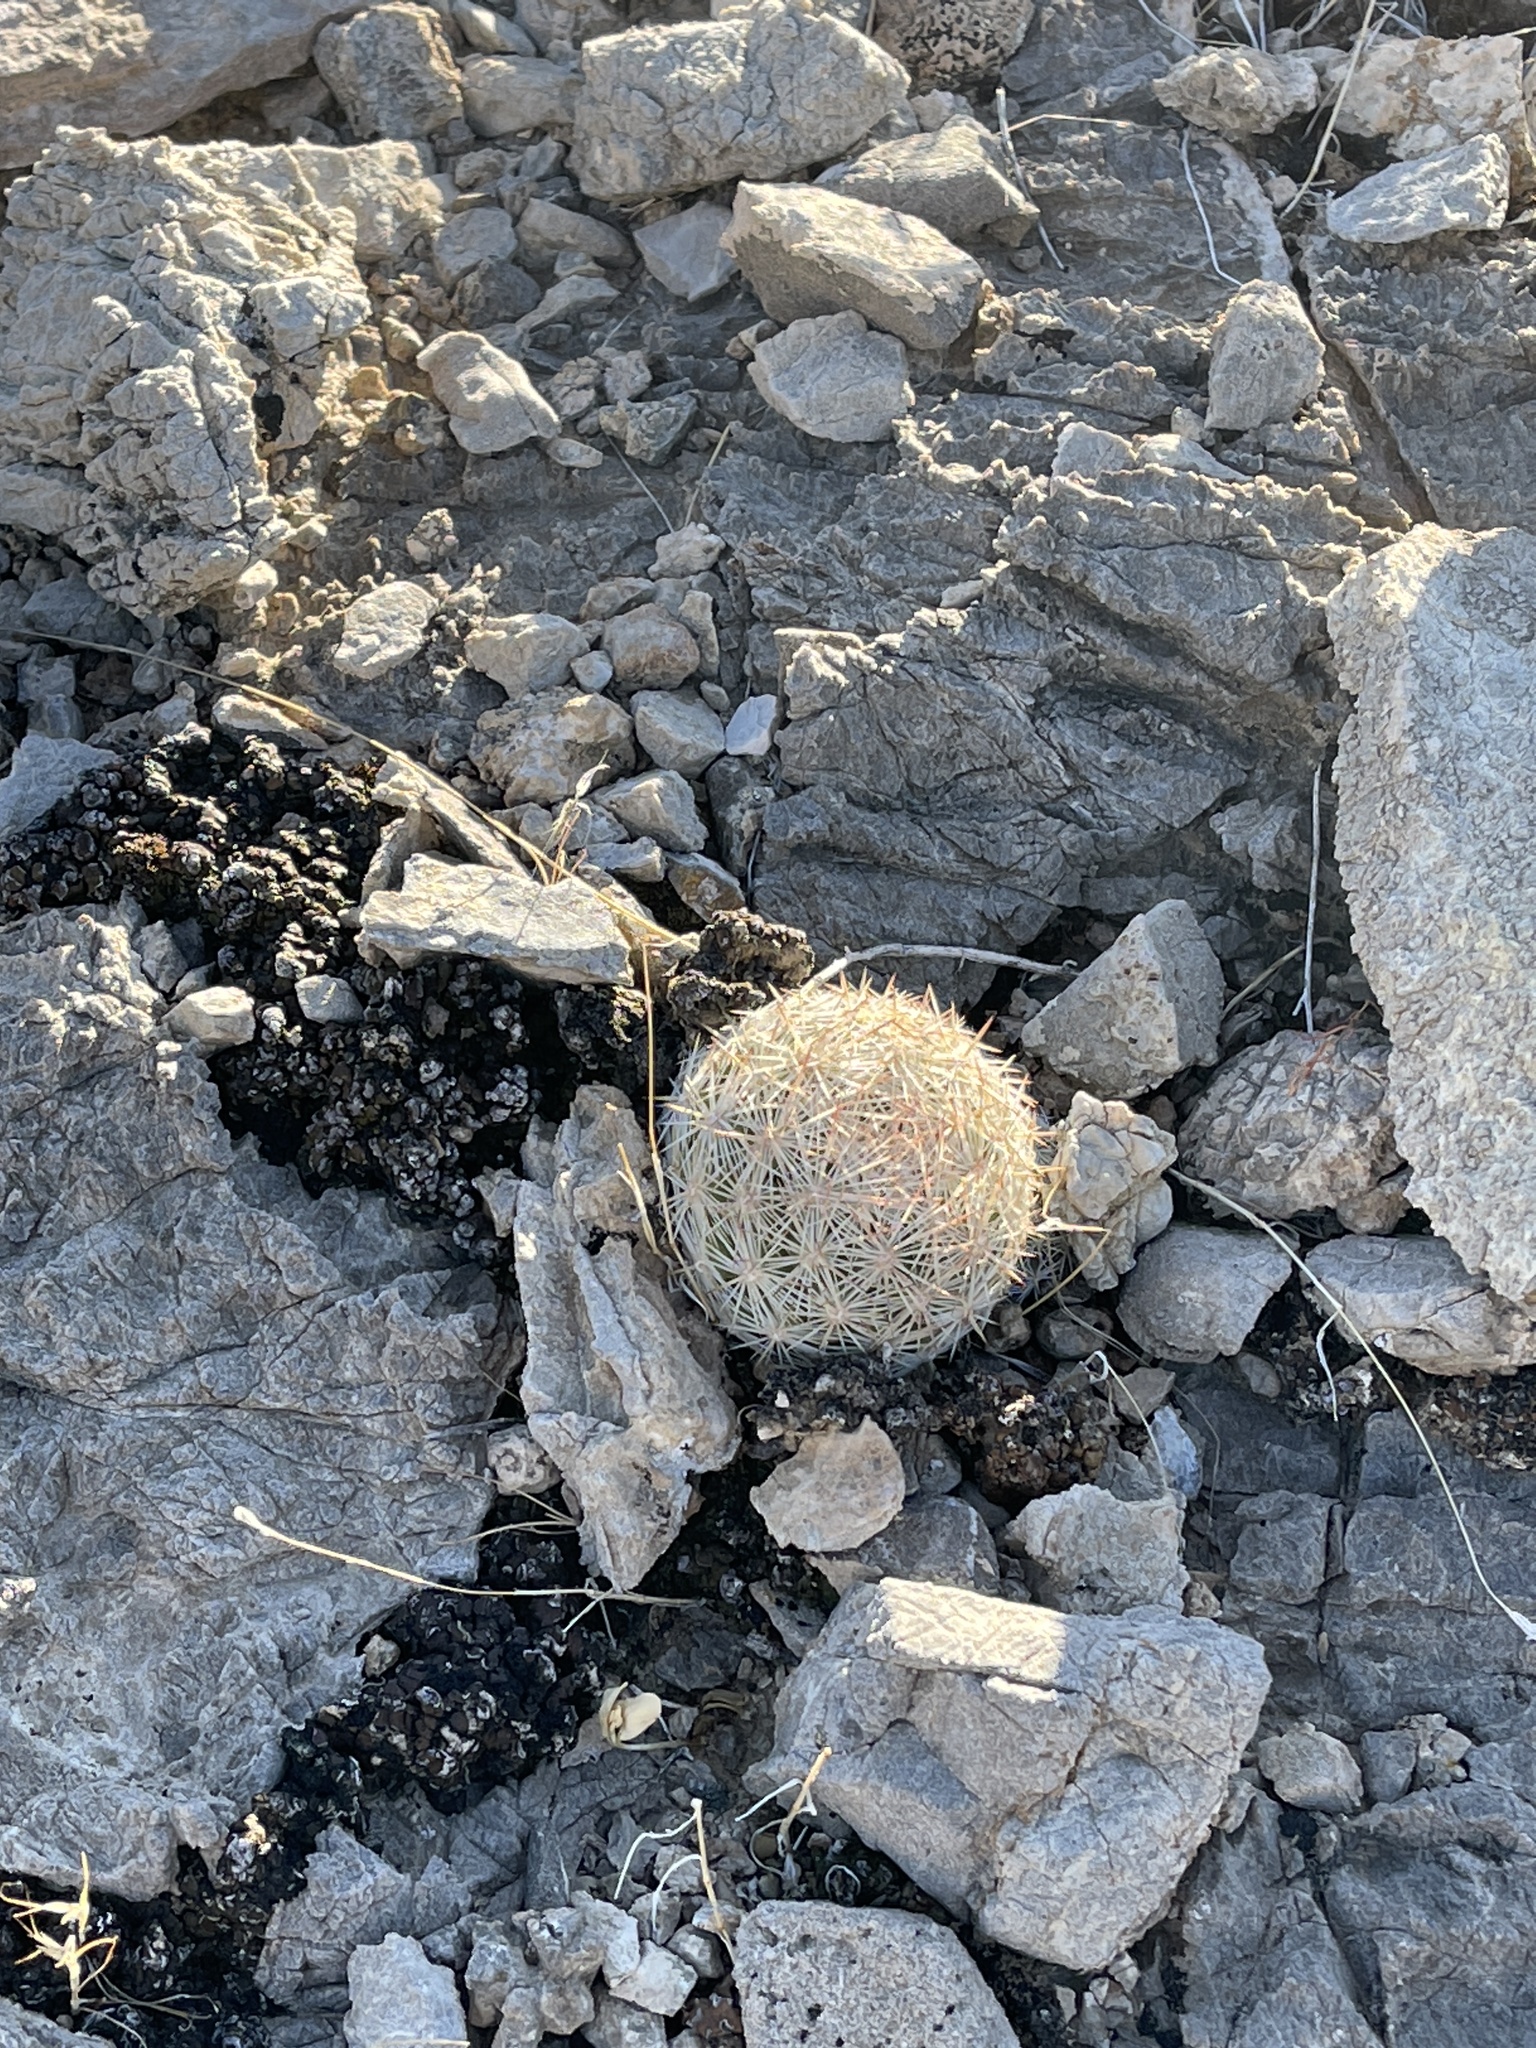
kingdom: Plantae
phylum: Tracheophyta
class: Magnoliopsida
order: Caryophyllales
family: Cactaceae
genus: Pelecyphora
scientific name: Pelecyphora dasyacantha
